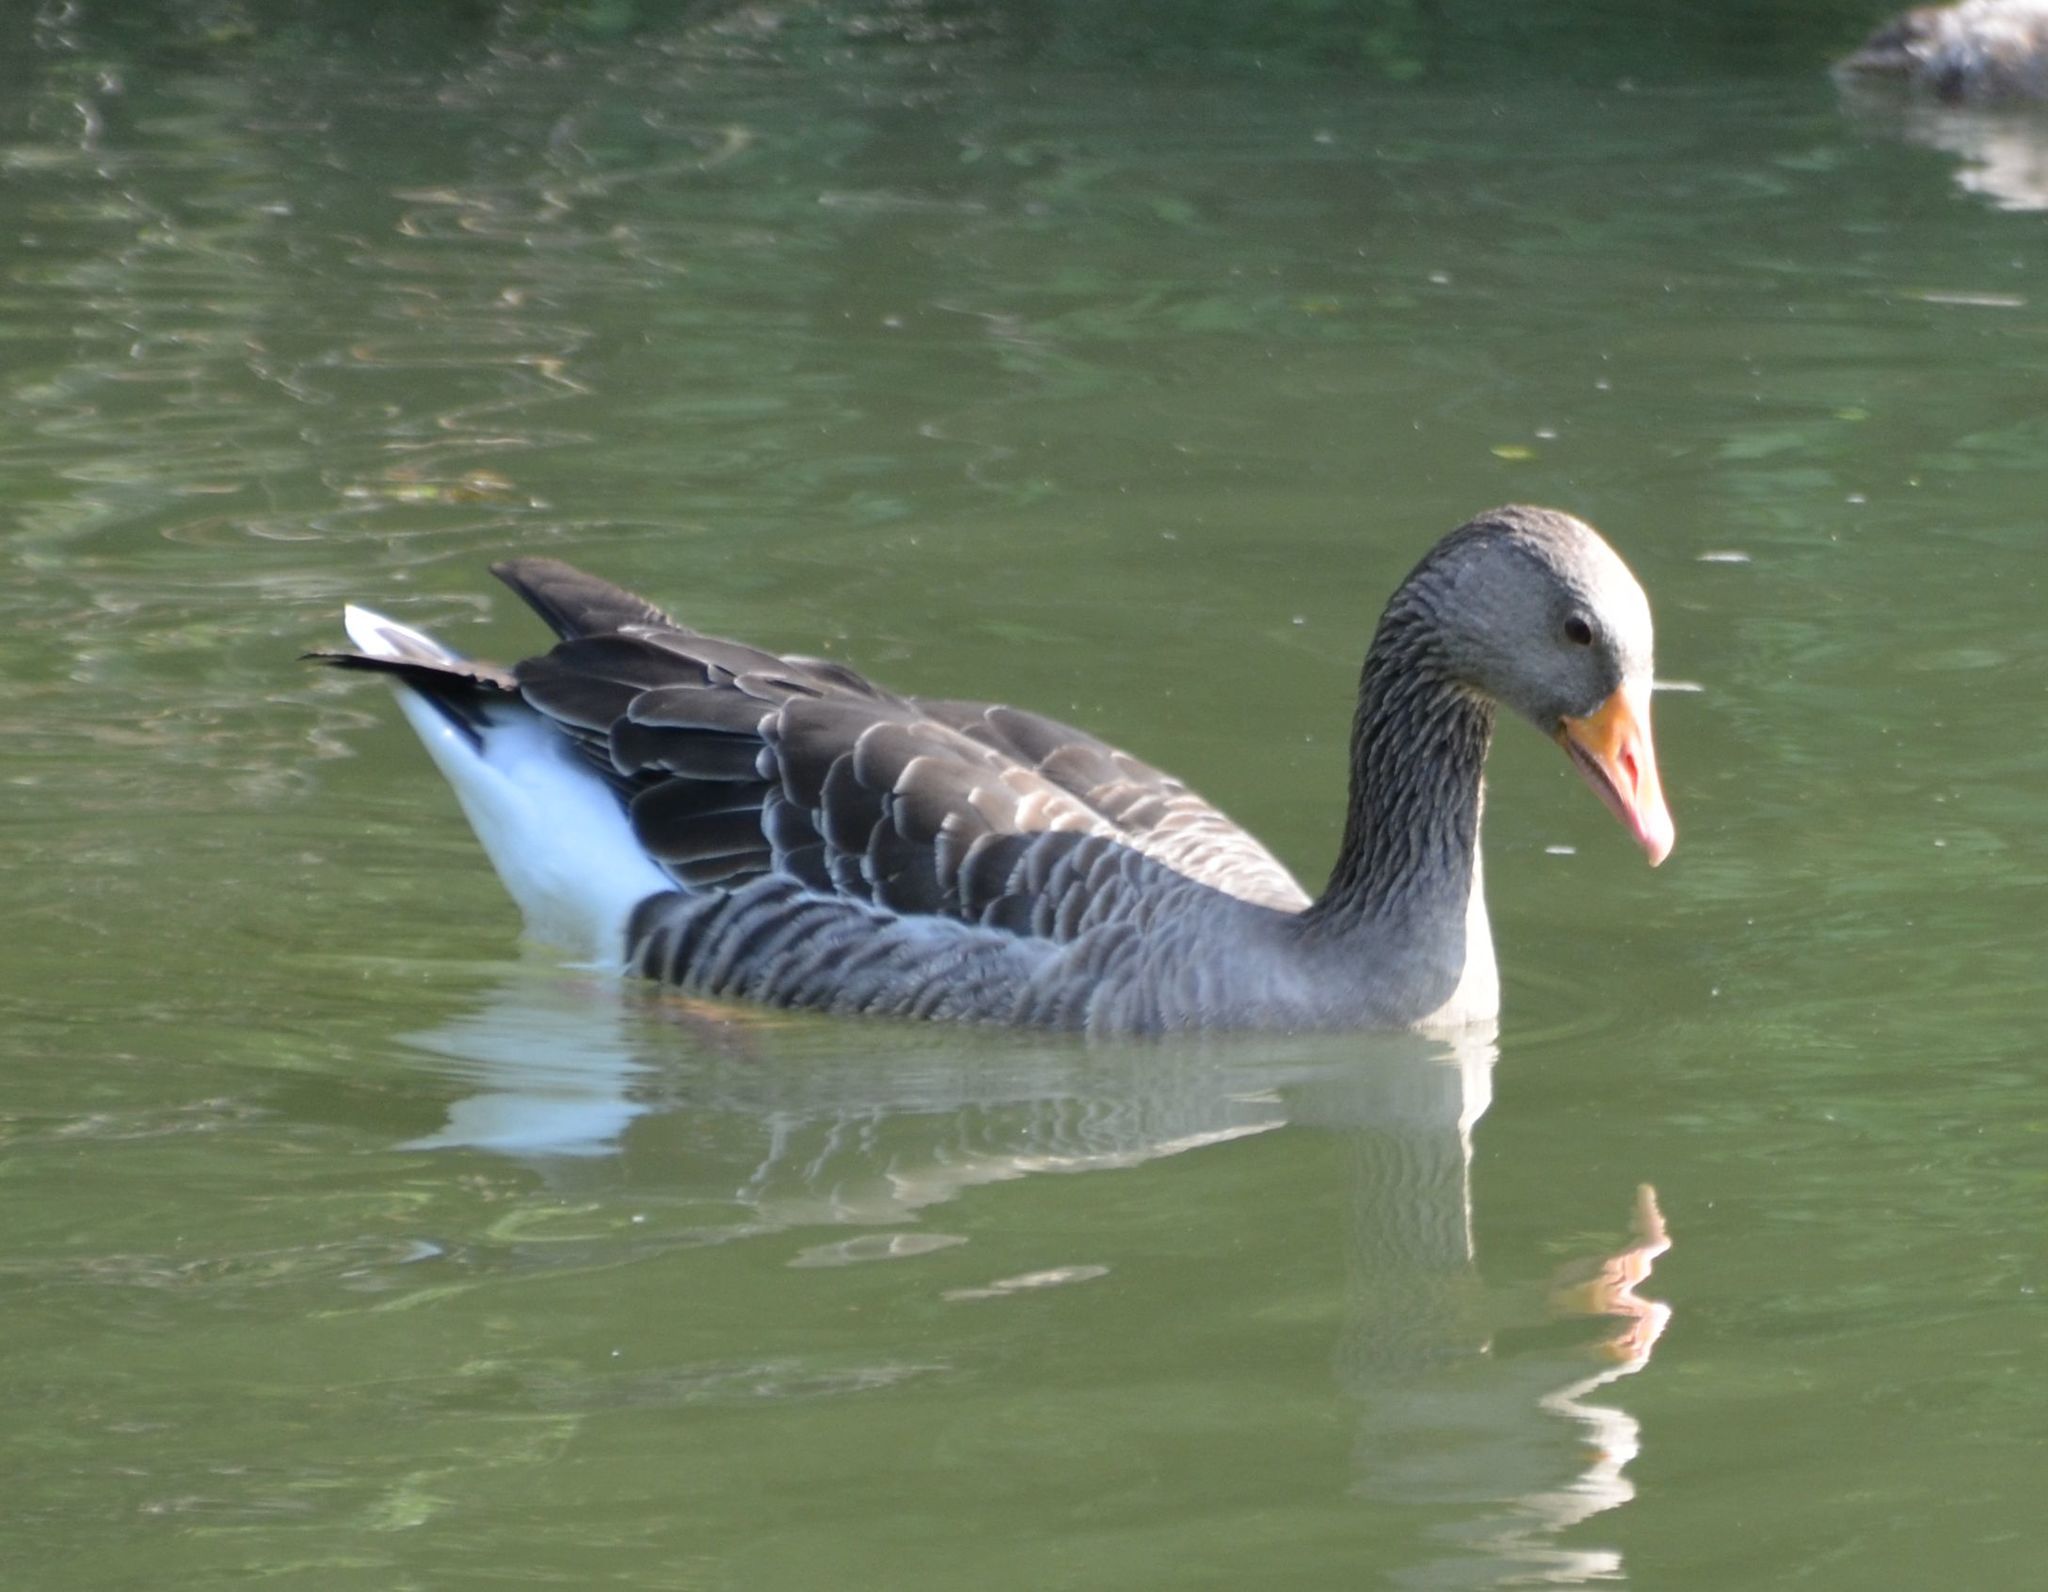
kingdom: Animalia
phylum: Chordata
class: Aves
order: Anseriformes
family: Anatidae
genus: Anser
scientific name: Anser anser
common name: Greylag goose
